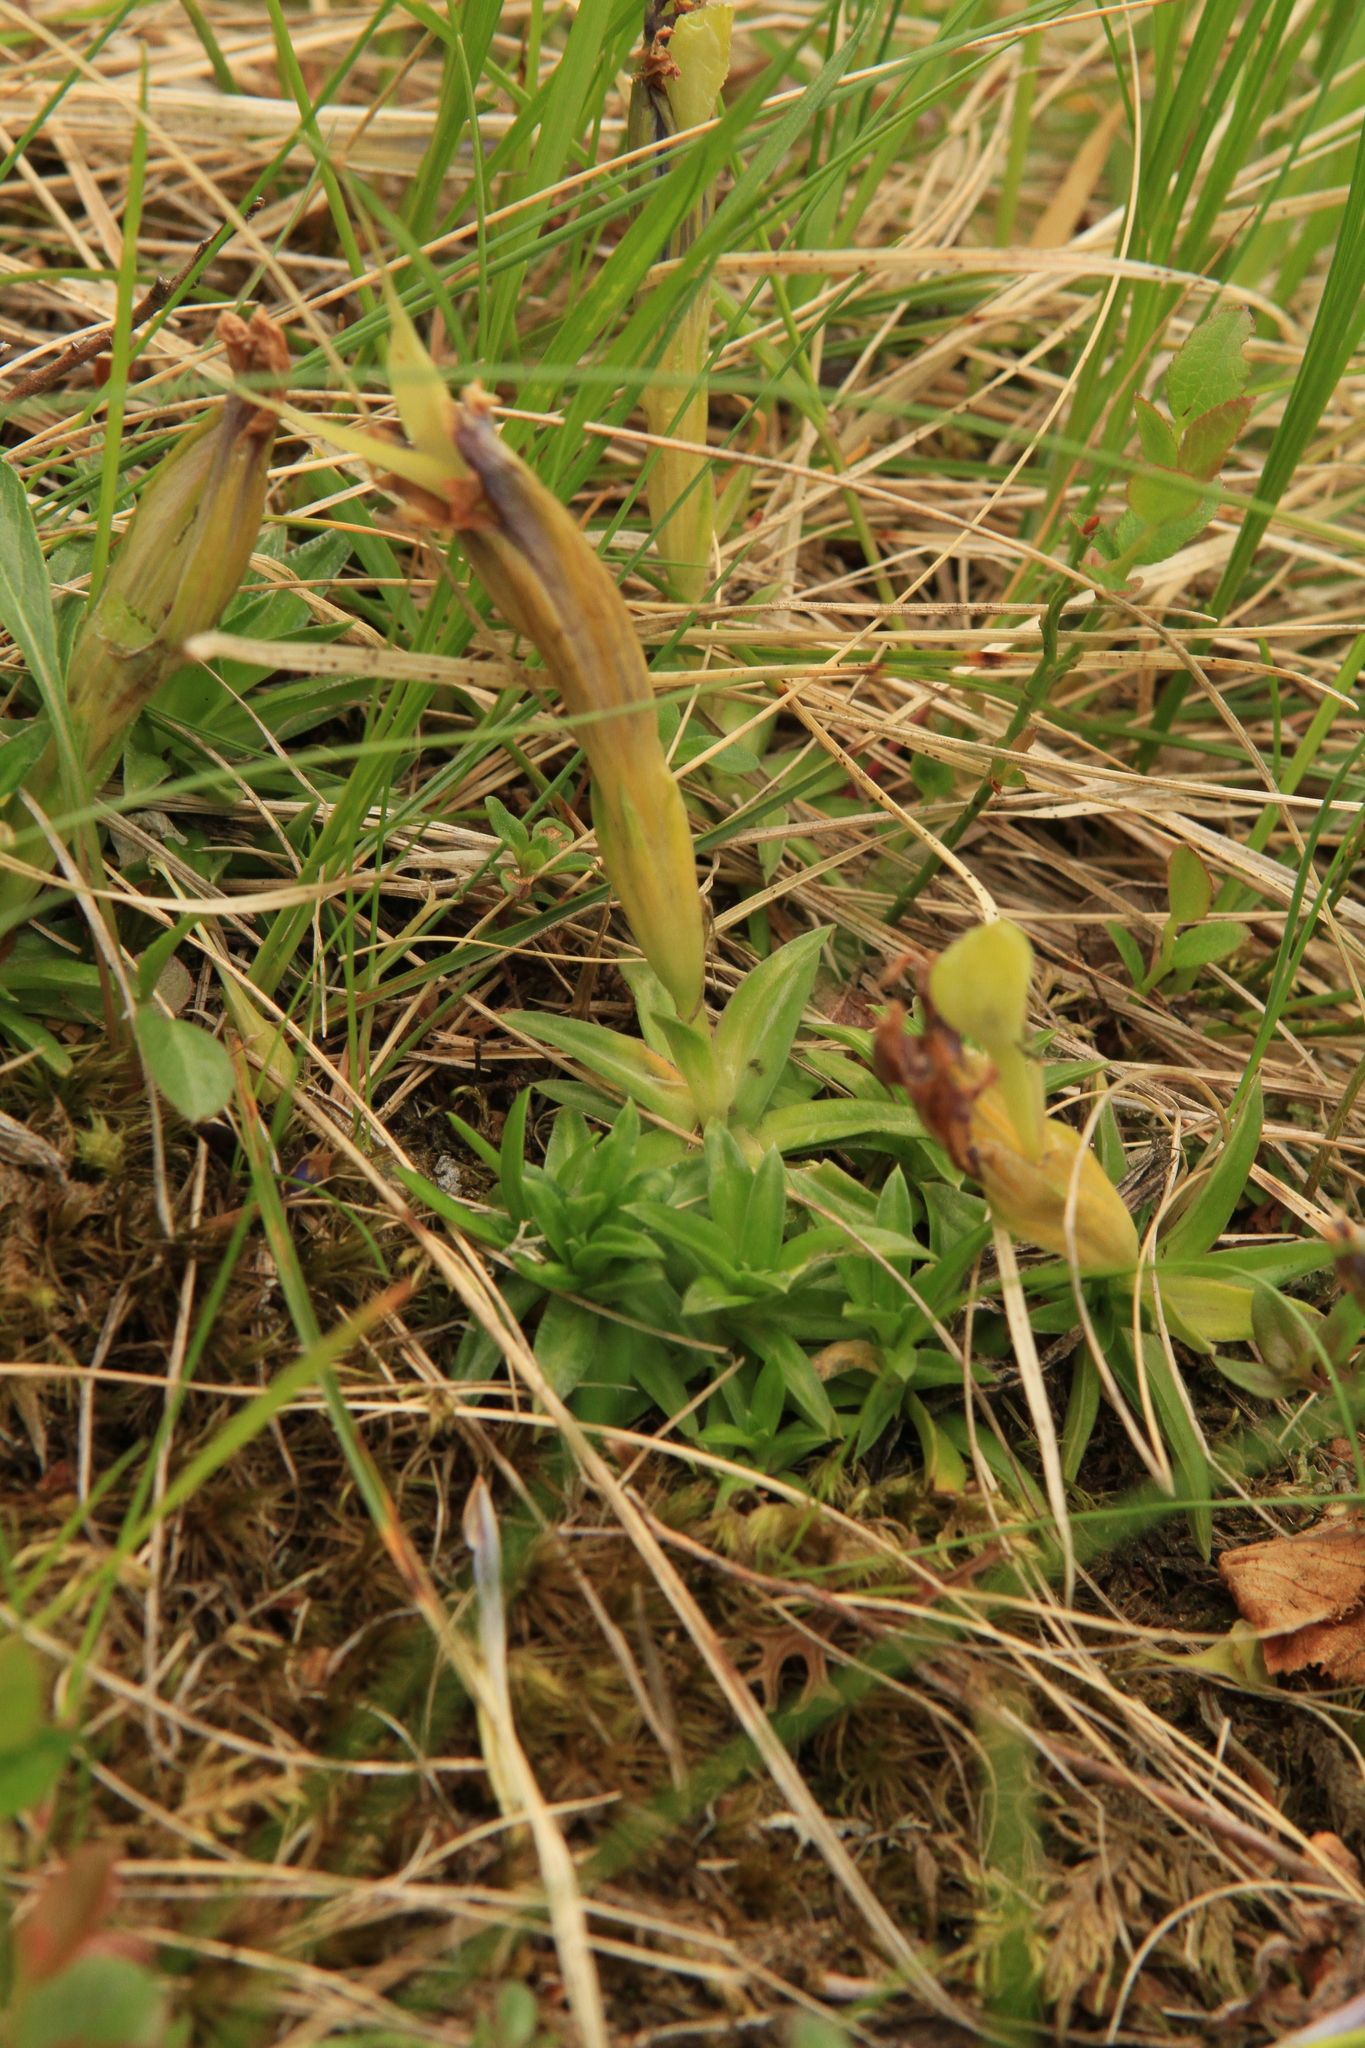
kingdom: Plantae
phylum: Tracheophyta
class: Magnoliopsida
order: Gentianales
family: Gentianaceae
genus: Gentiana
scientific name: Gentiana grandiflora
